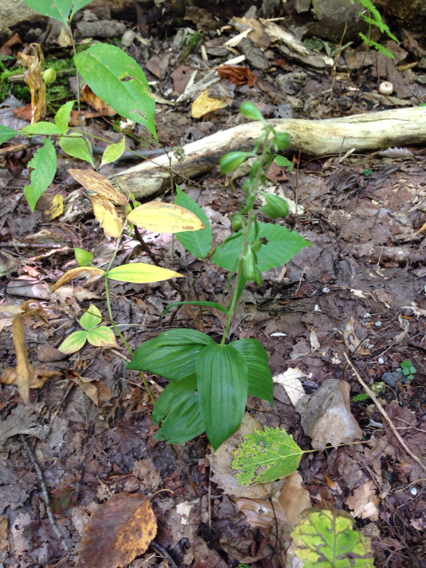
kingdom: Plantae
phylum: Tracheophyta
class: Liliopsida
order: Asparagales
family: Orchidaceae
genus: Epipactis
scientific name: Epipactis helleborine
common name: Broad-leaved helleborine
